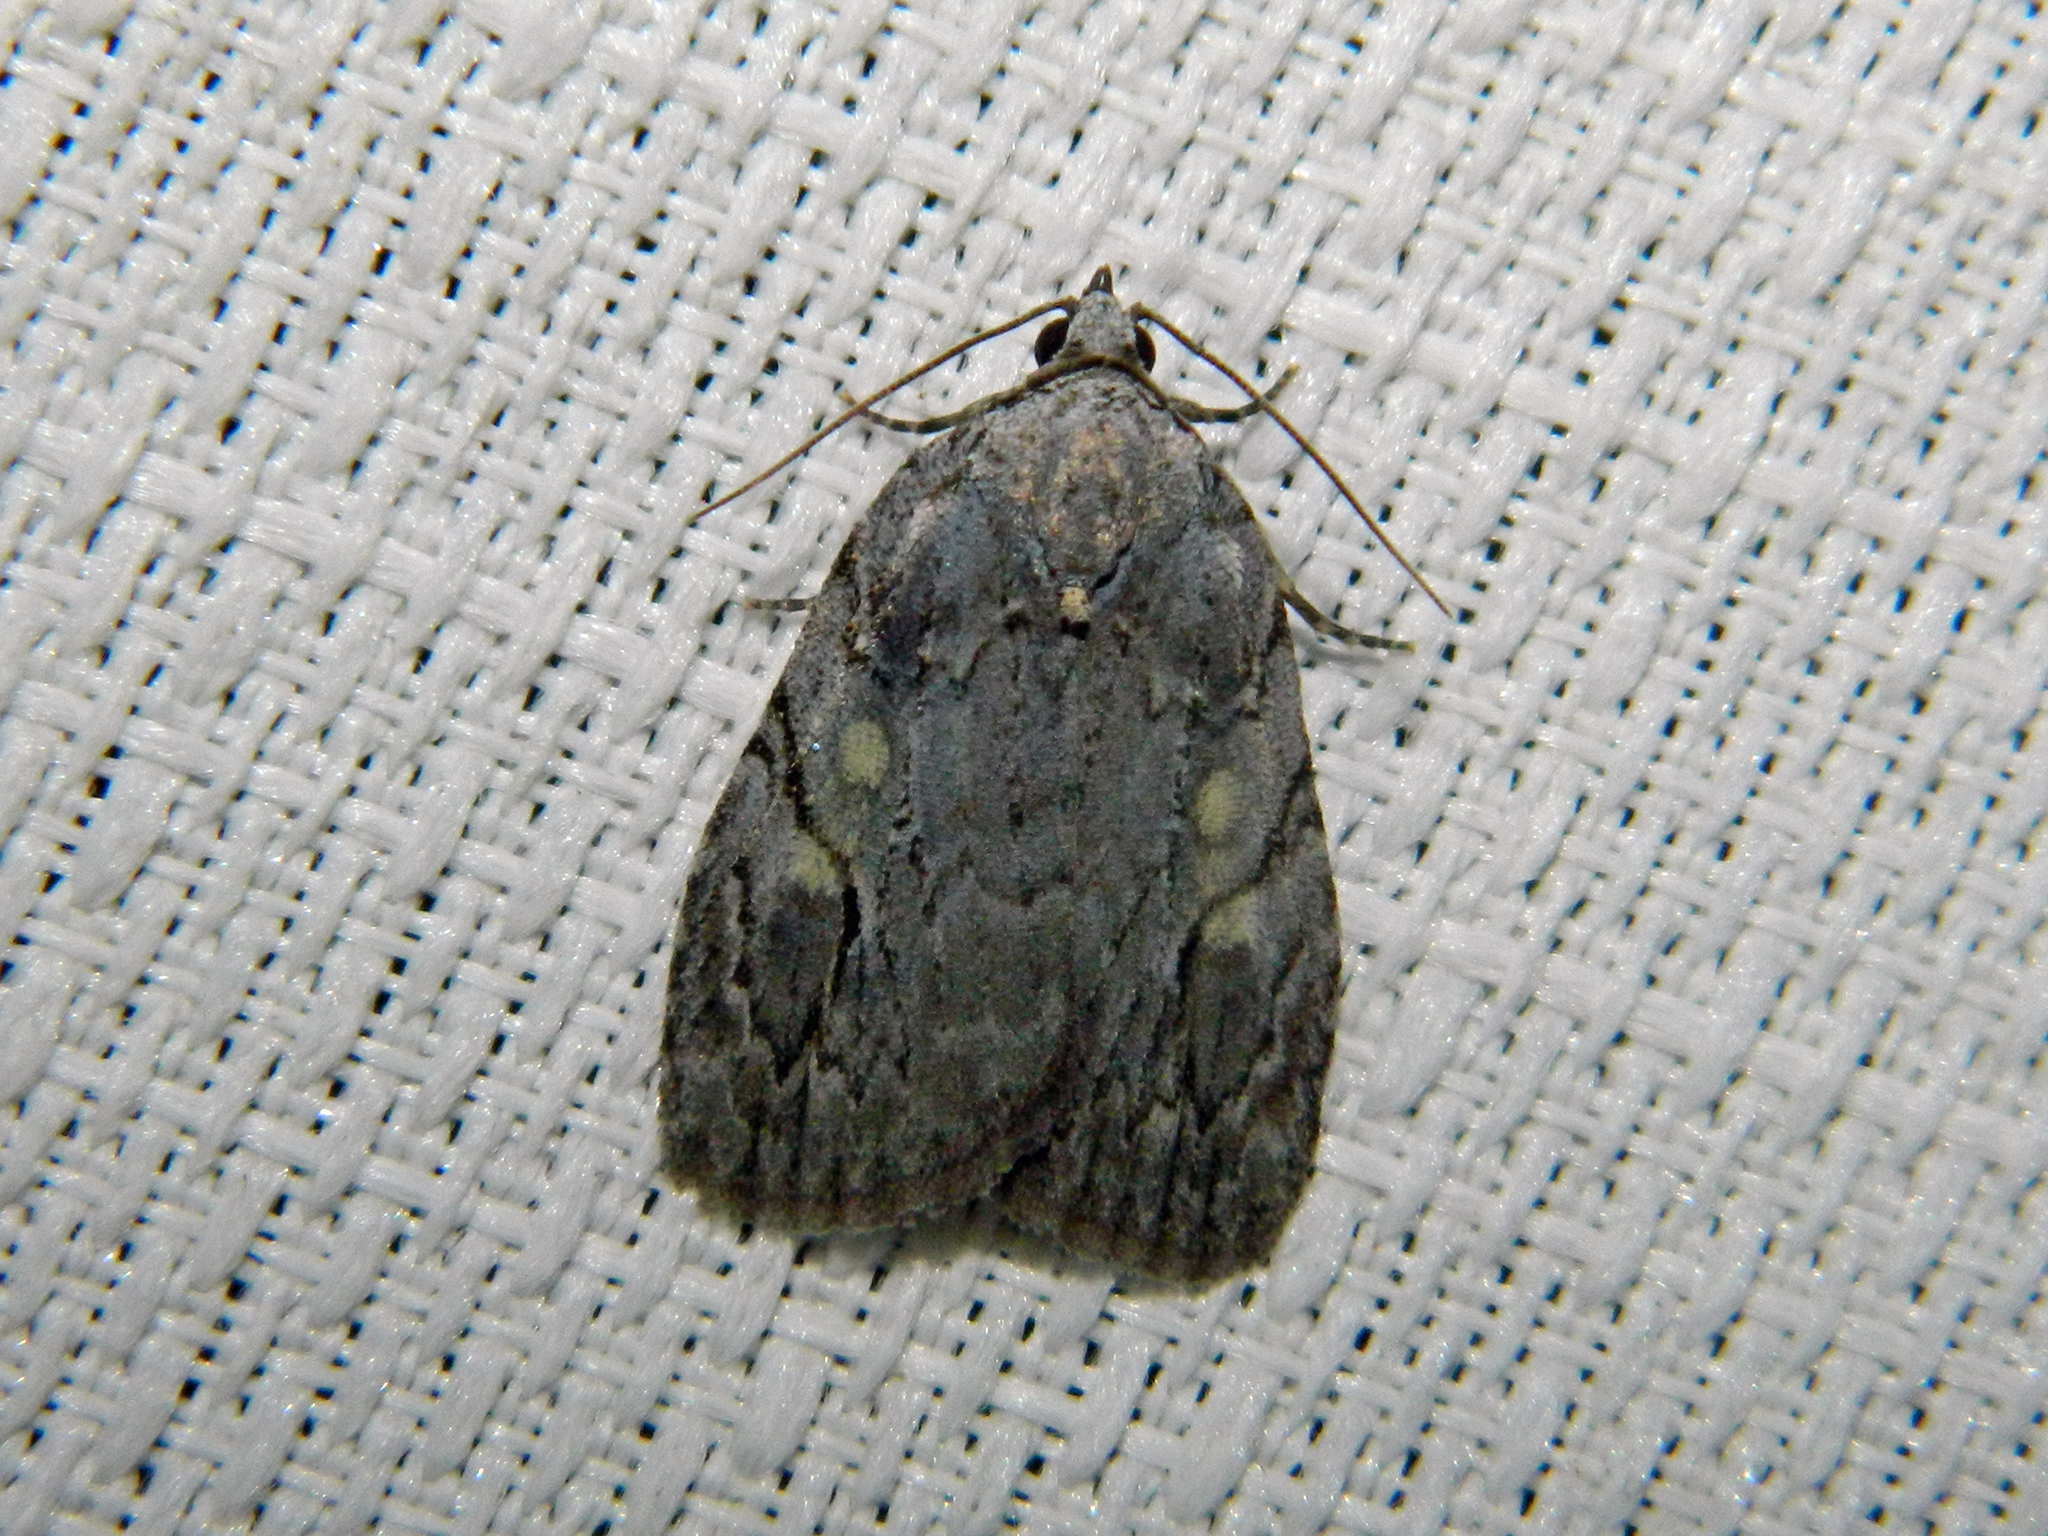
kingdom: Animalia
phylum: Arthropoda
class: Insecta
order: Lepidoptera
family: Noctuidae
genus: Balsa
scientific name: Balsa labecula
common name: White-blotched balsa moth
